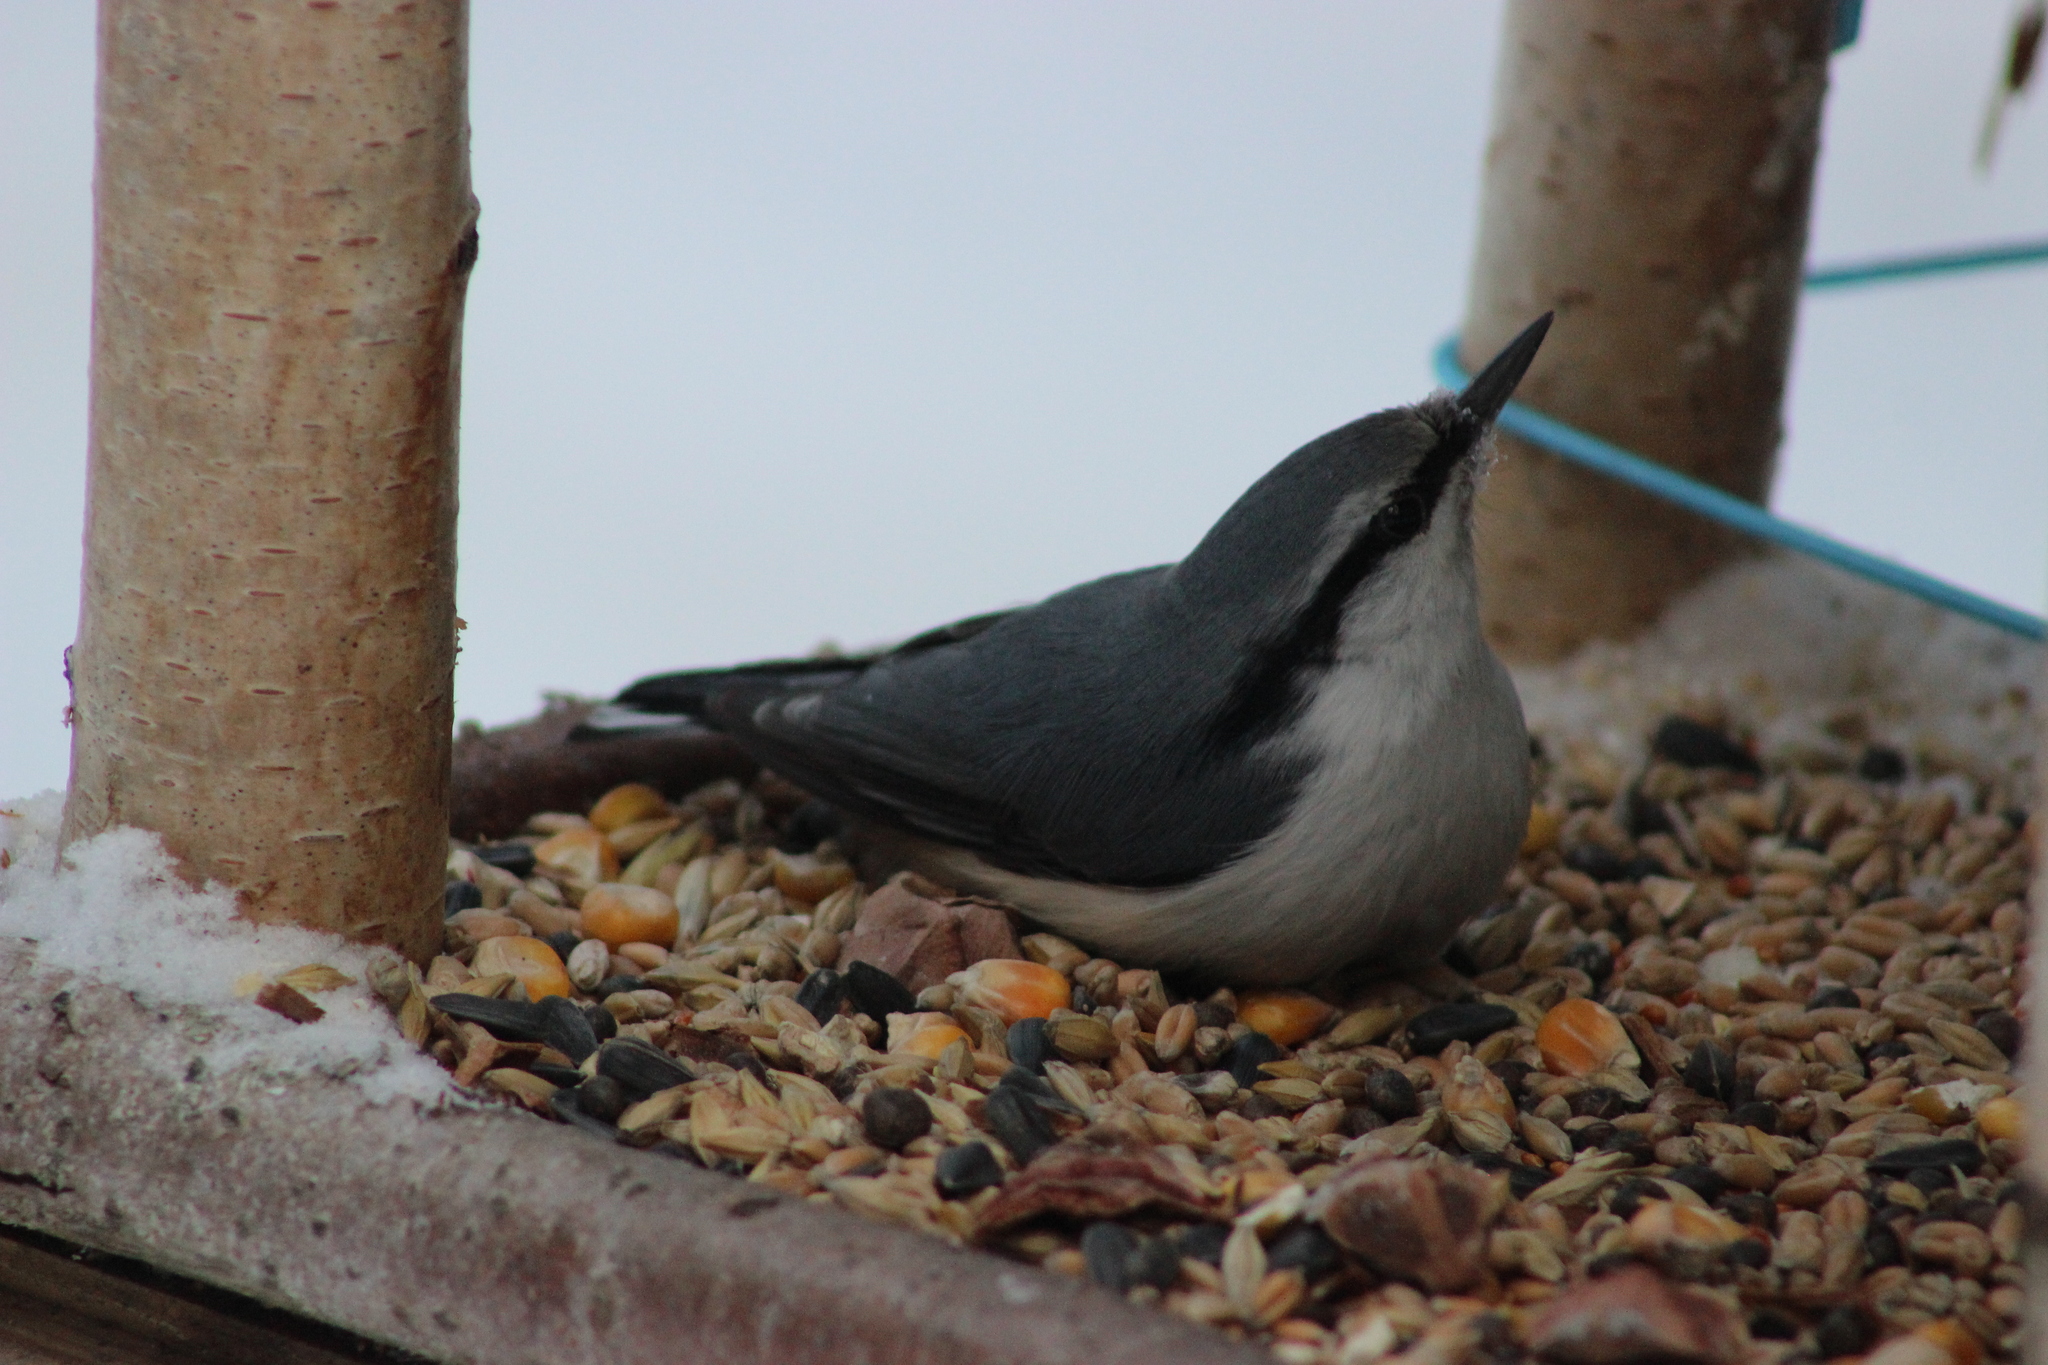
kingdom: Animalia
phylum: Chordata
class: Aves
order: Passeriformes
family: Sittidae
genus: Sitta
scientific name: Sitta europaea
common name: Eurasian nuthatch
